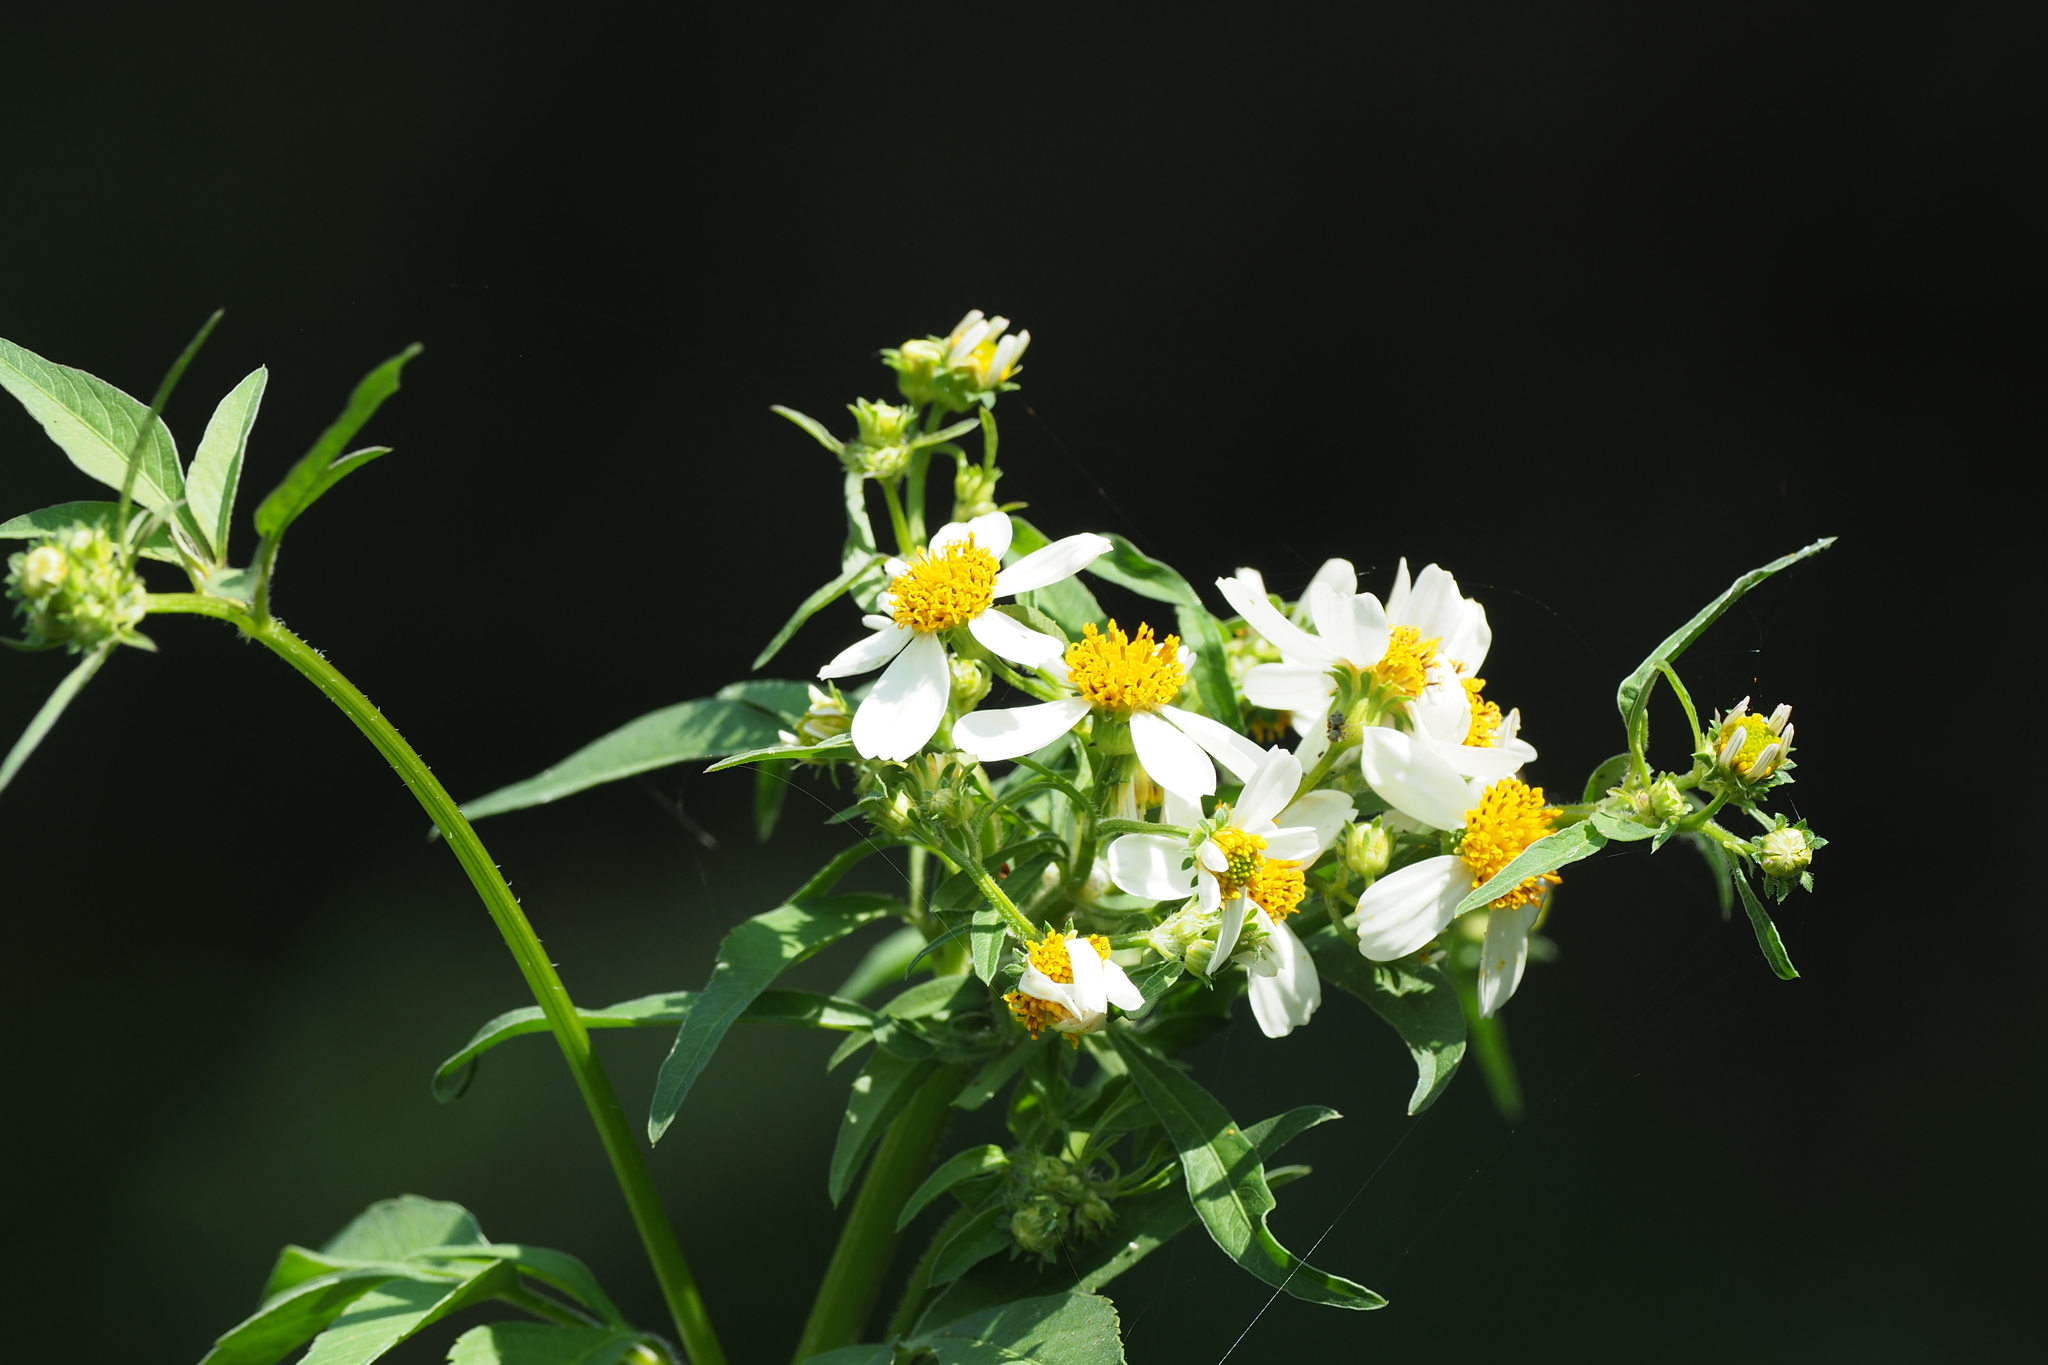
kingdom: Plantae
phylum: Tracheophyta
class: Magnoliopsida
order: Asterales
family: Asteraceae
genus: Bidens
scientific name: Bidens alba
